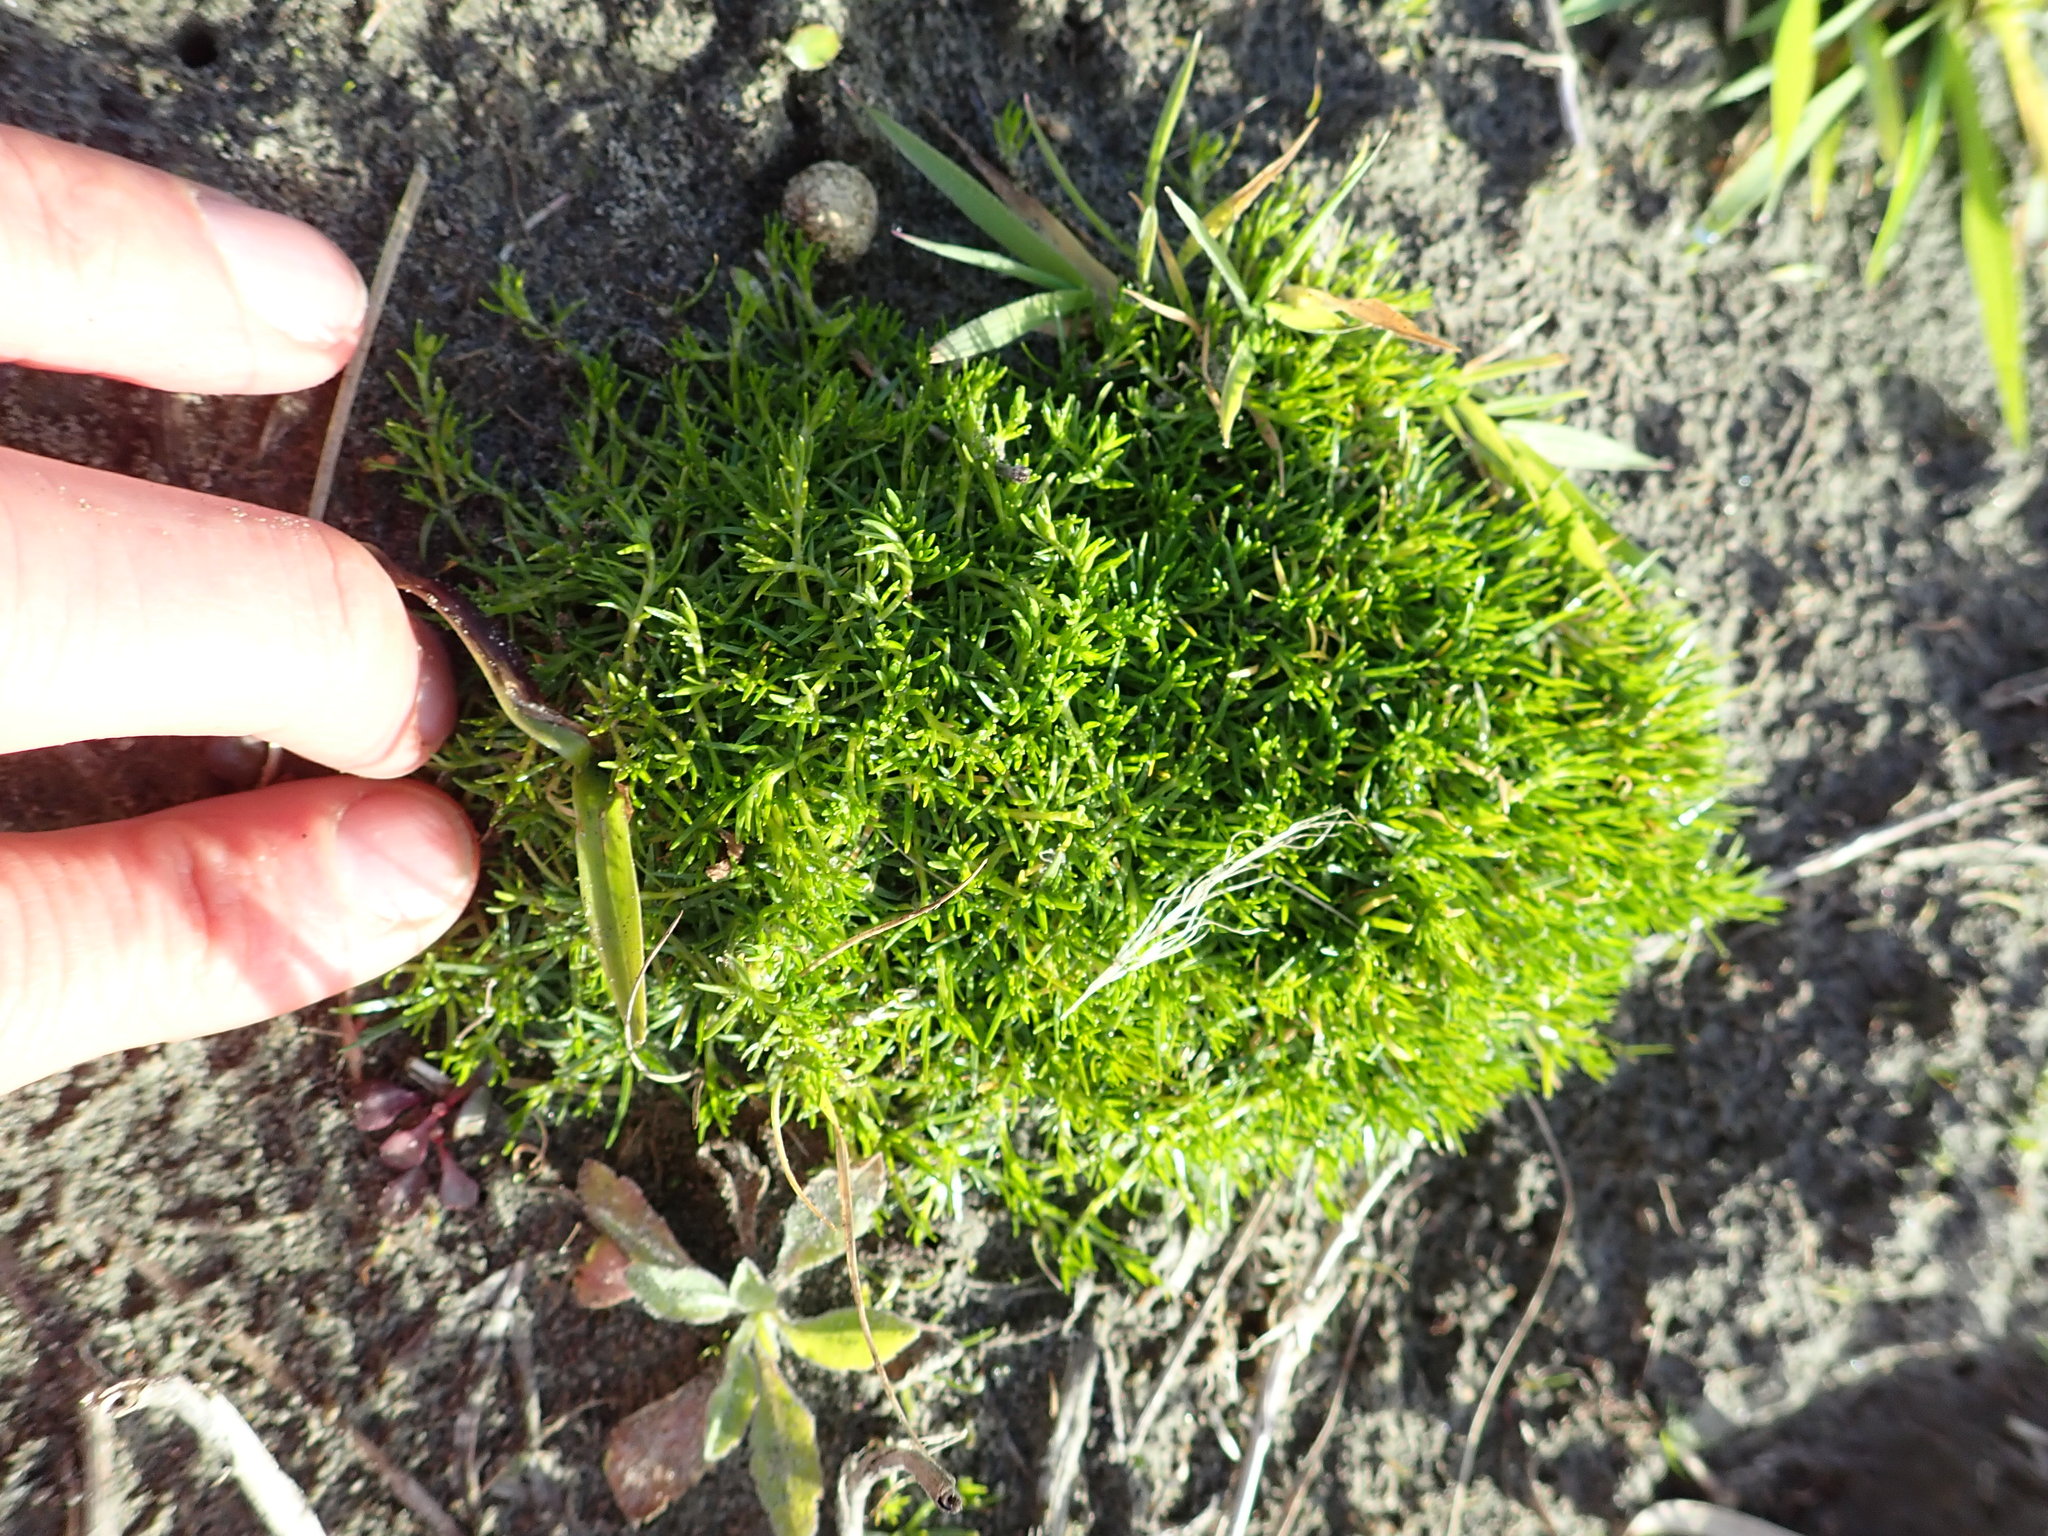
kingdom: Plantae
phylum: Tracheophyta
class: Magnoliopsida
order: Caryophyllales
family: Caryophyllaceae
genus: Sagina
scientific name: Sagina procumbens
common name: Procumbent pearlwort
